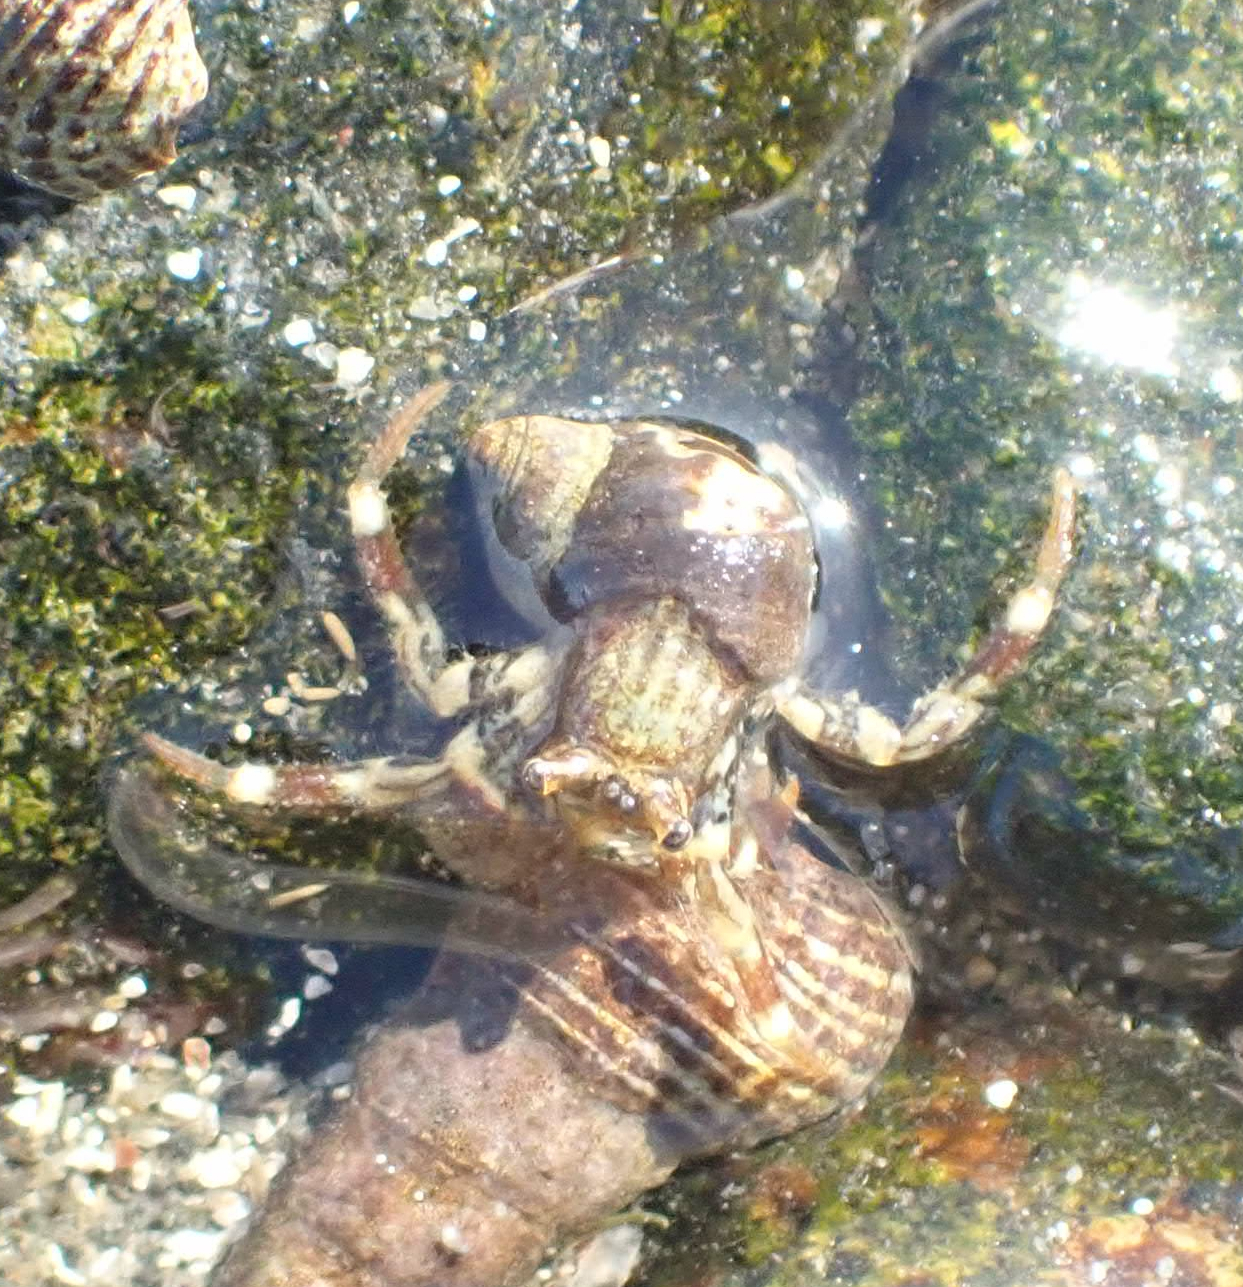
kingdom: Animalia
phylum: Arthropoda
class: Malacostraca
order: Decapoda
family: Paguridae
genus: Pagurus
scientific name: Pagurus hirsutiusculus
